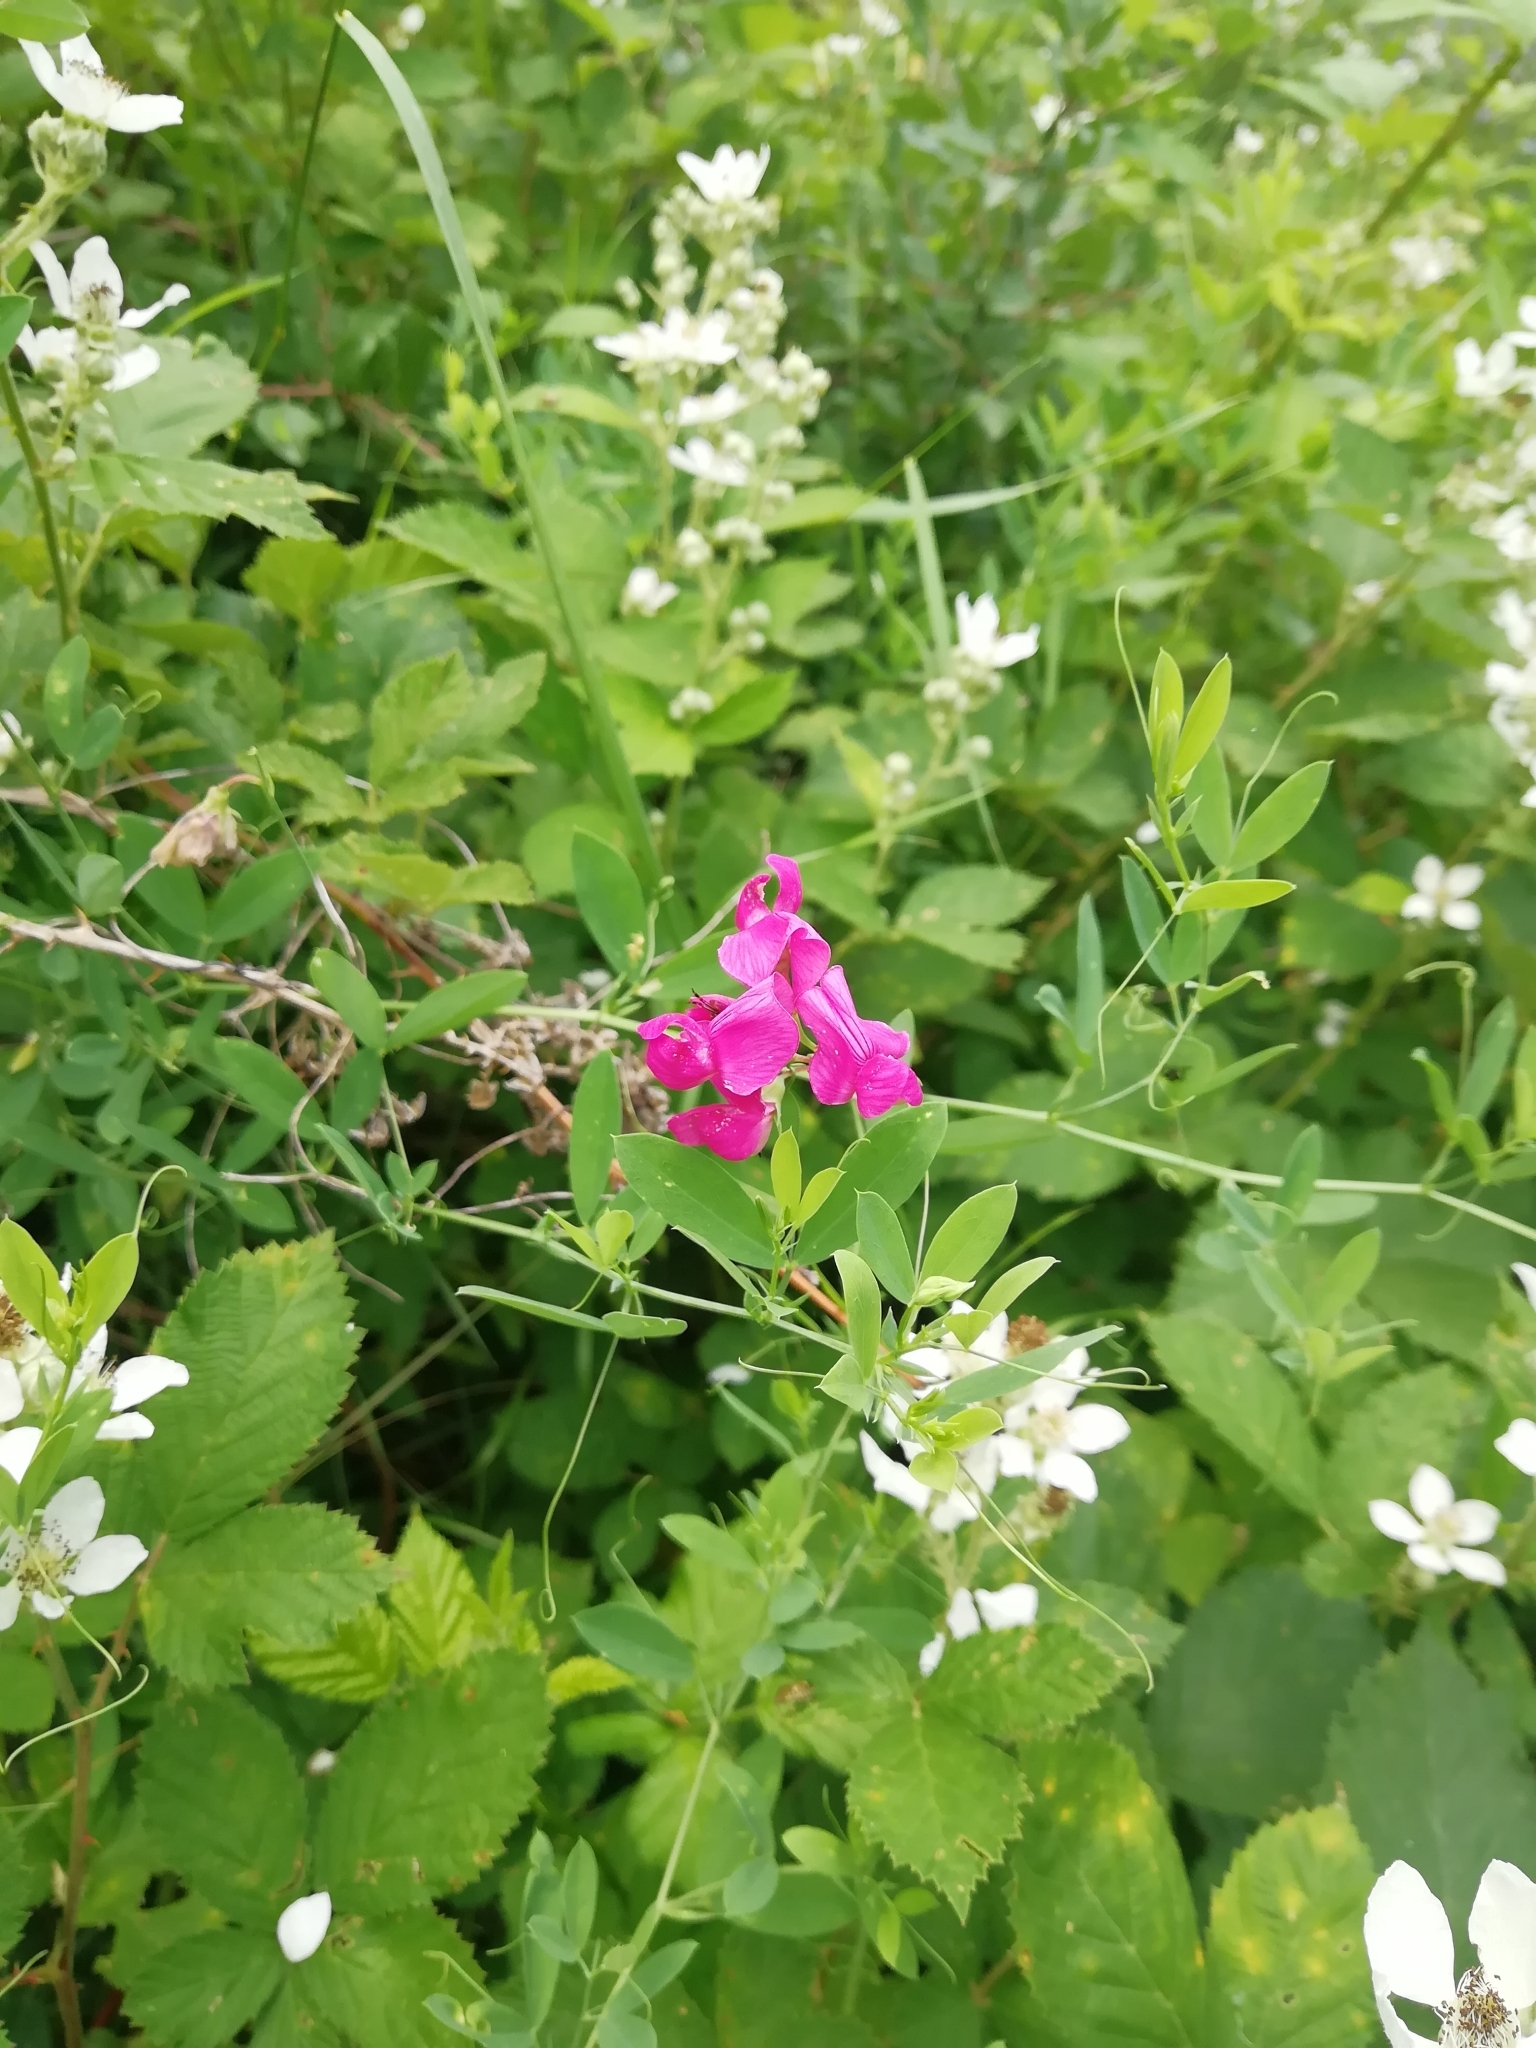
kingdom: Plantae
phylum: Tracheophyta
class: Magnoliopsida
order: Fabales
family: Fabaceae
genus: Lathyrus
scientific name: Lathyrus tuberosus
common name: Tuberous pea
